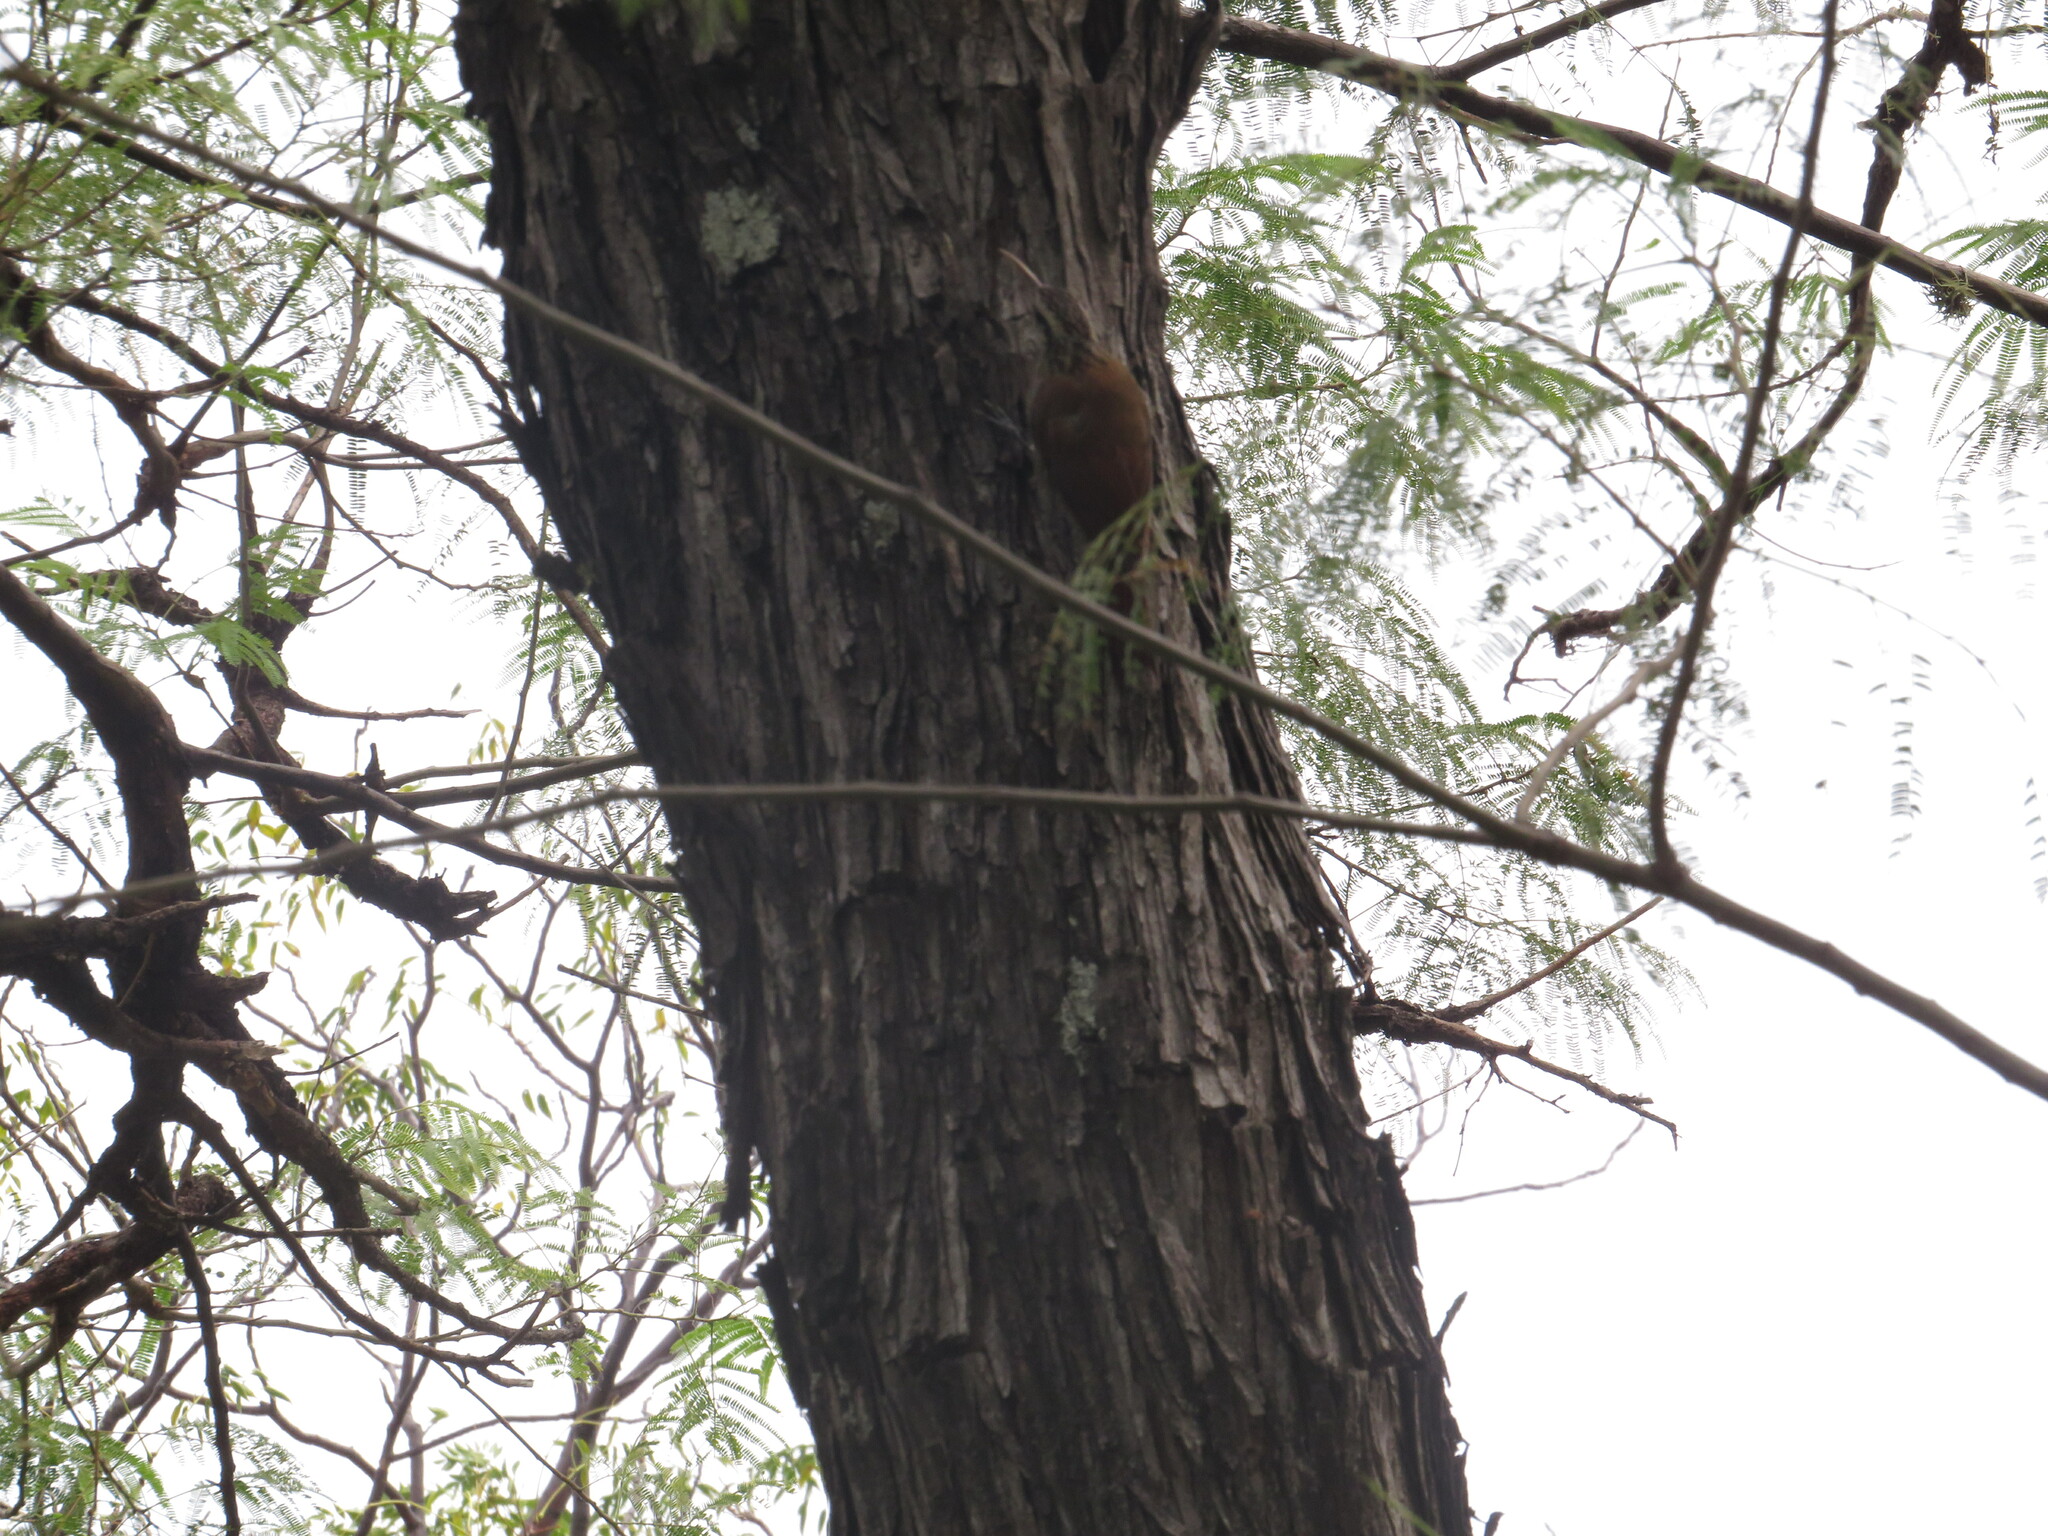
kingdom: Animalia
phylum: Chordata
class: Aves
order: Passeriformes
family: Furnariidae
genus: Lepidocolaptes
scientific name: Lepidocolaptes angustirostris
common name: Narrow-billed woodcreeper
